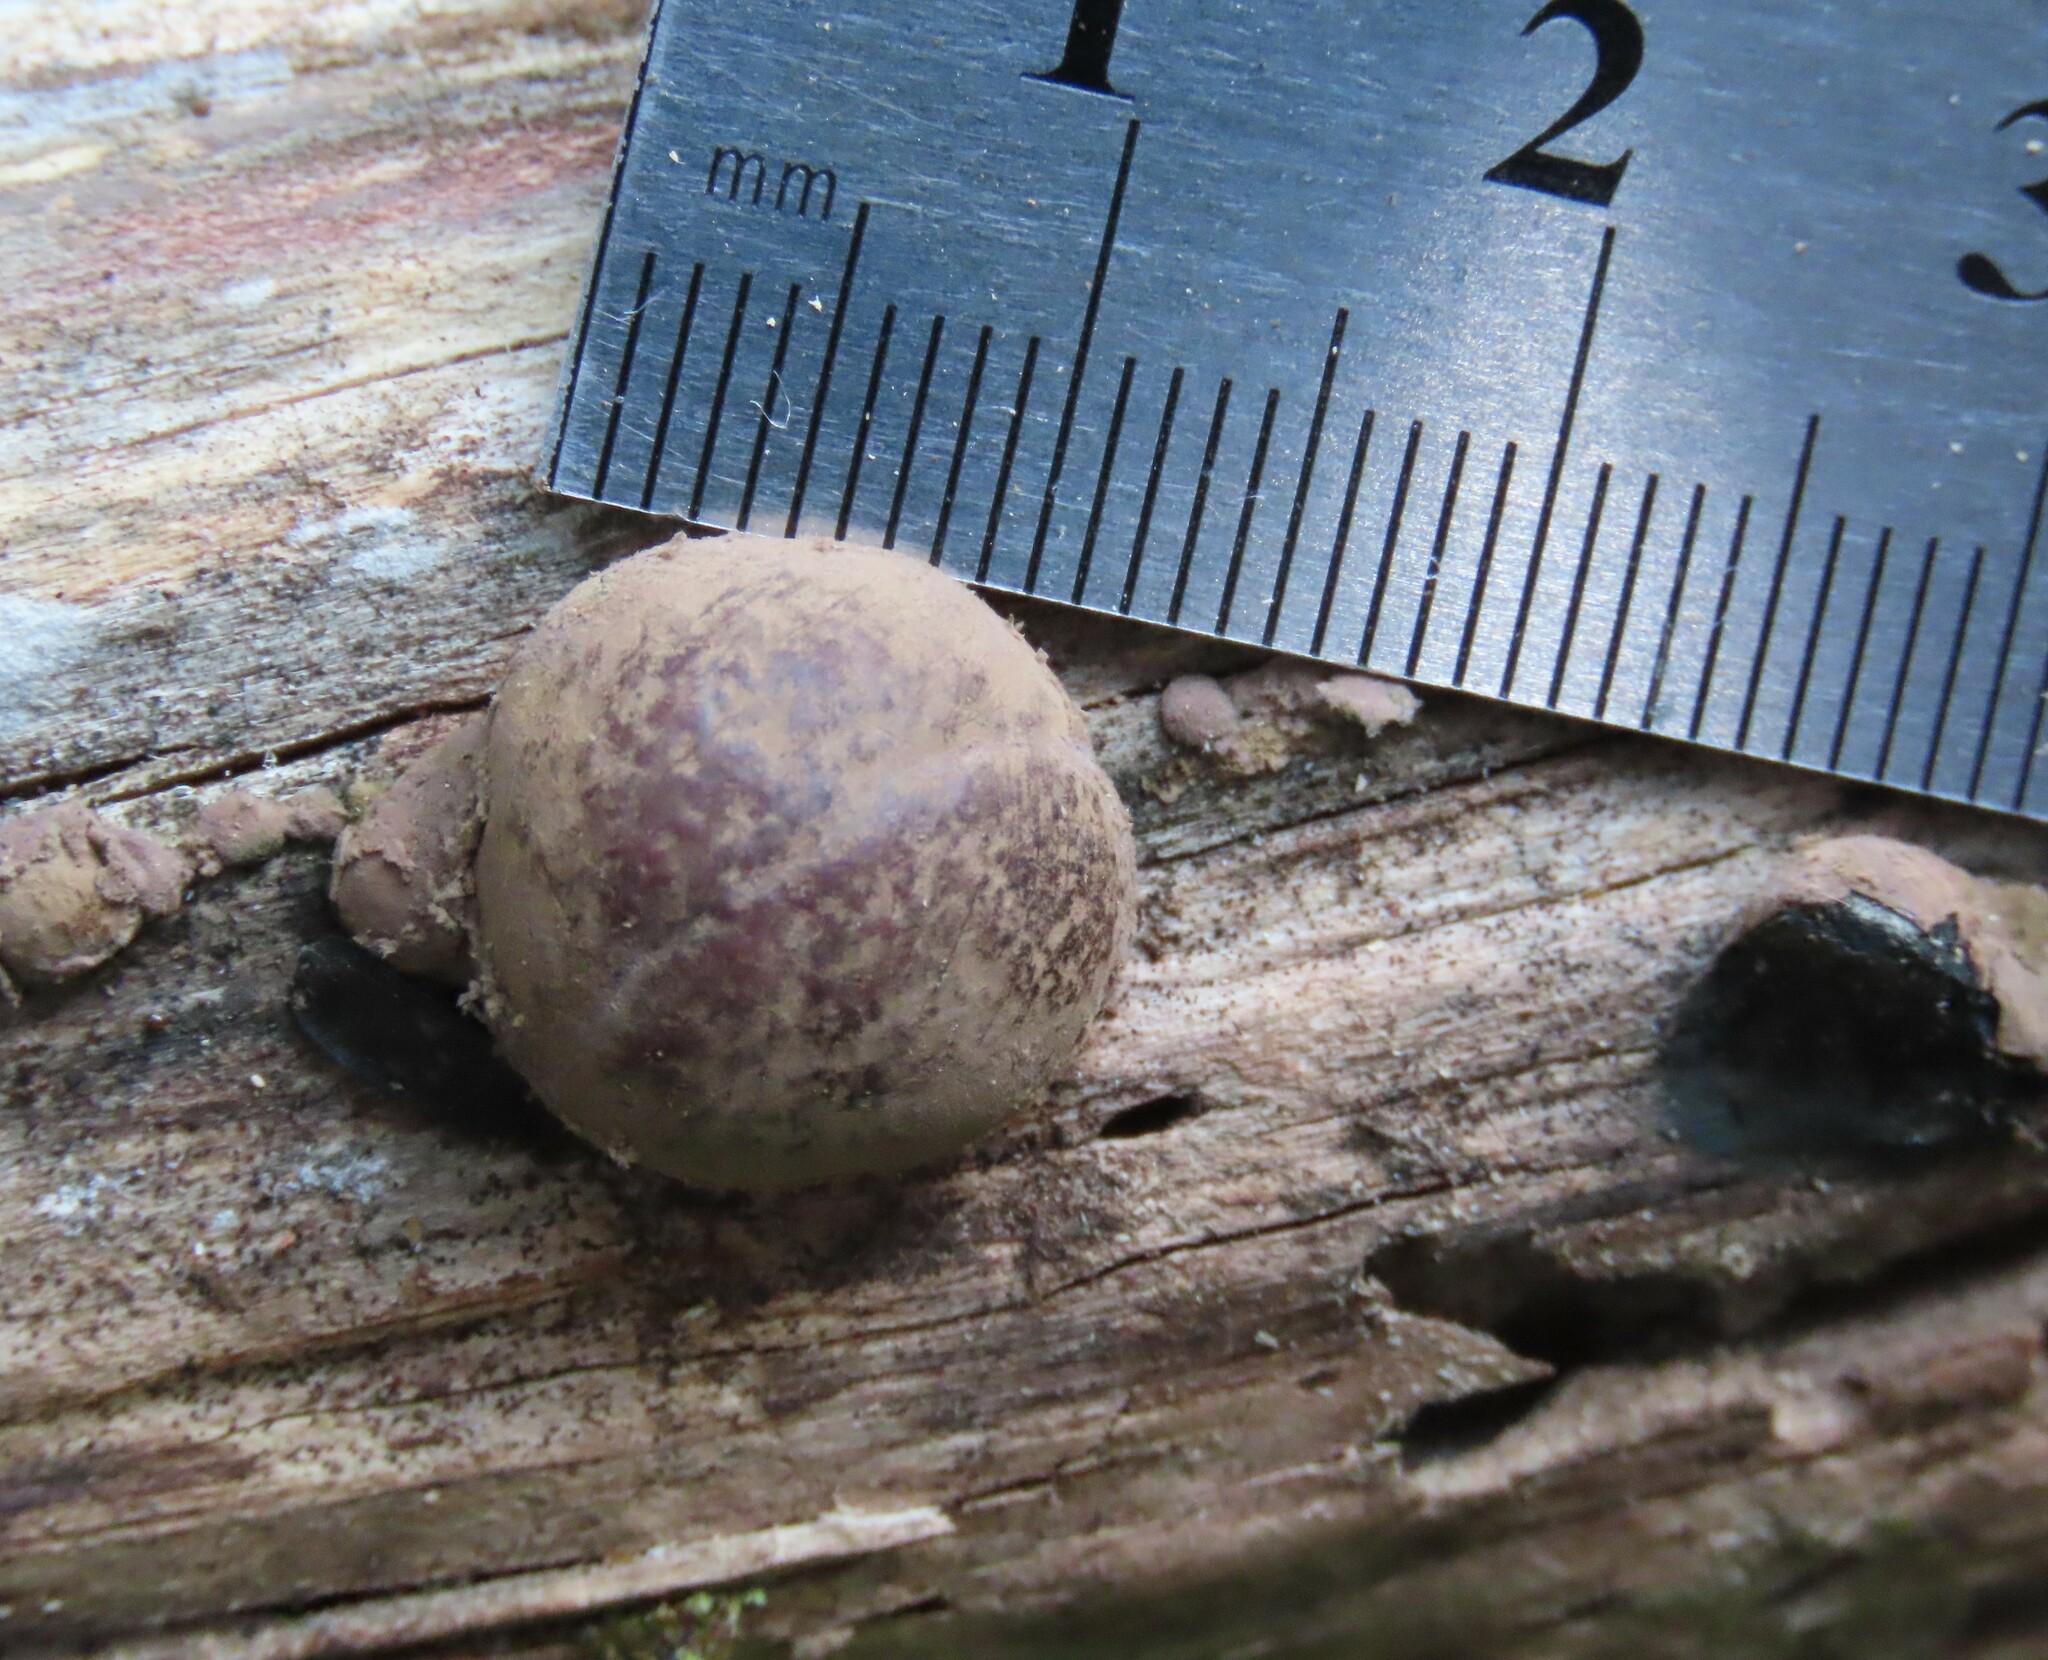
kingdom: Fungi
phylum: Ascomycota
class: Sordariomycetes
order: Xylariales
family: Hypoxylaceae
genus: Hypoxylon
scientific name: Hypoxylon howeanum
